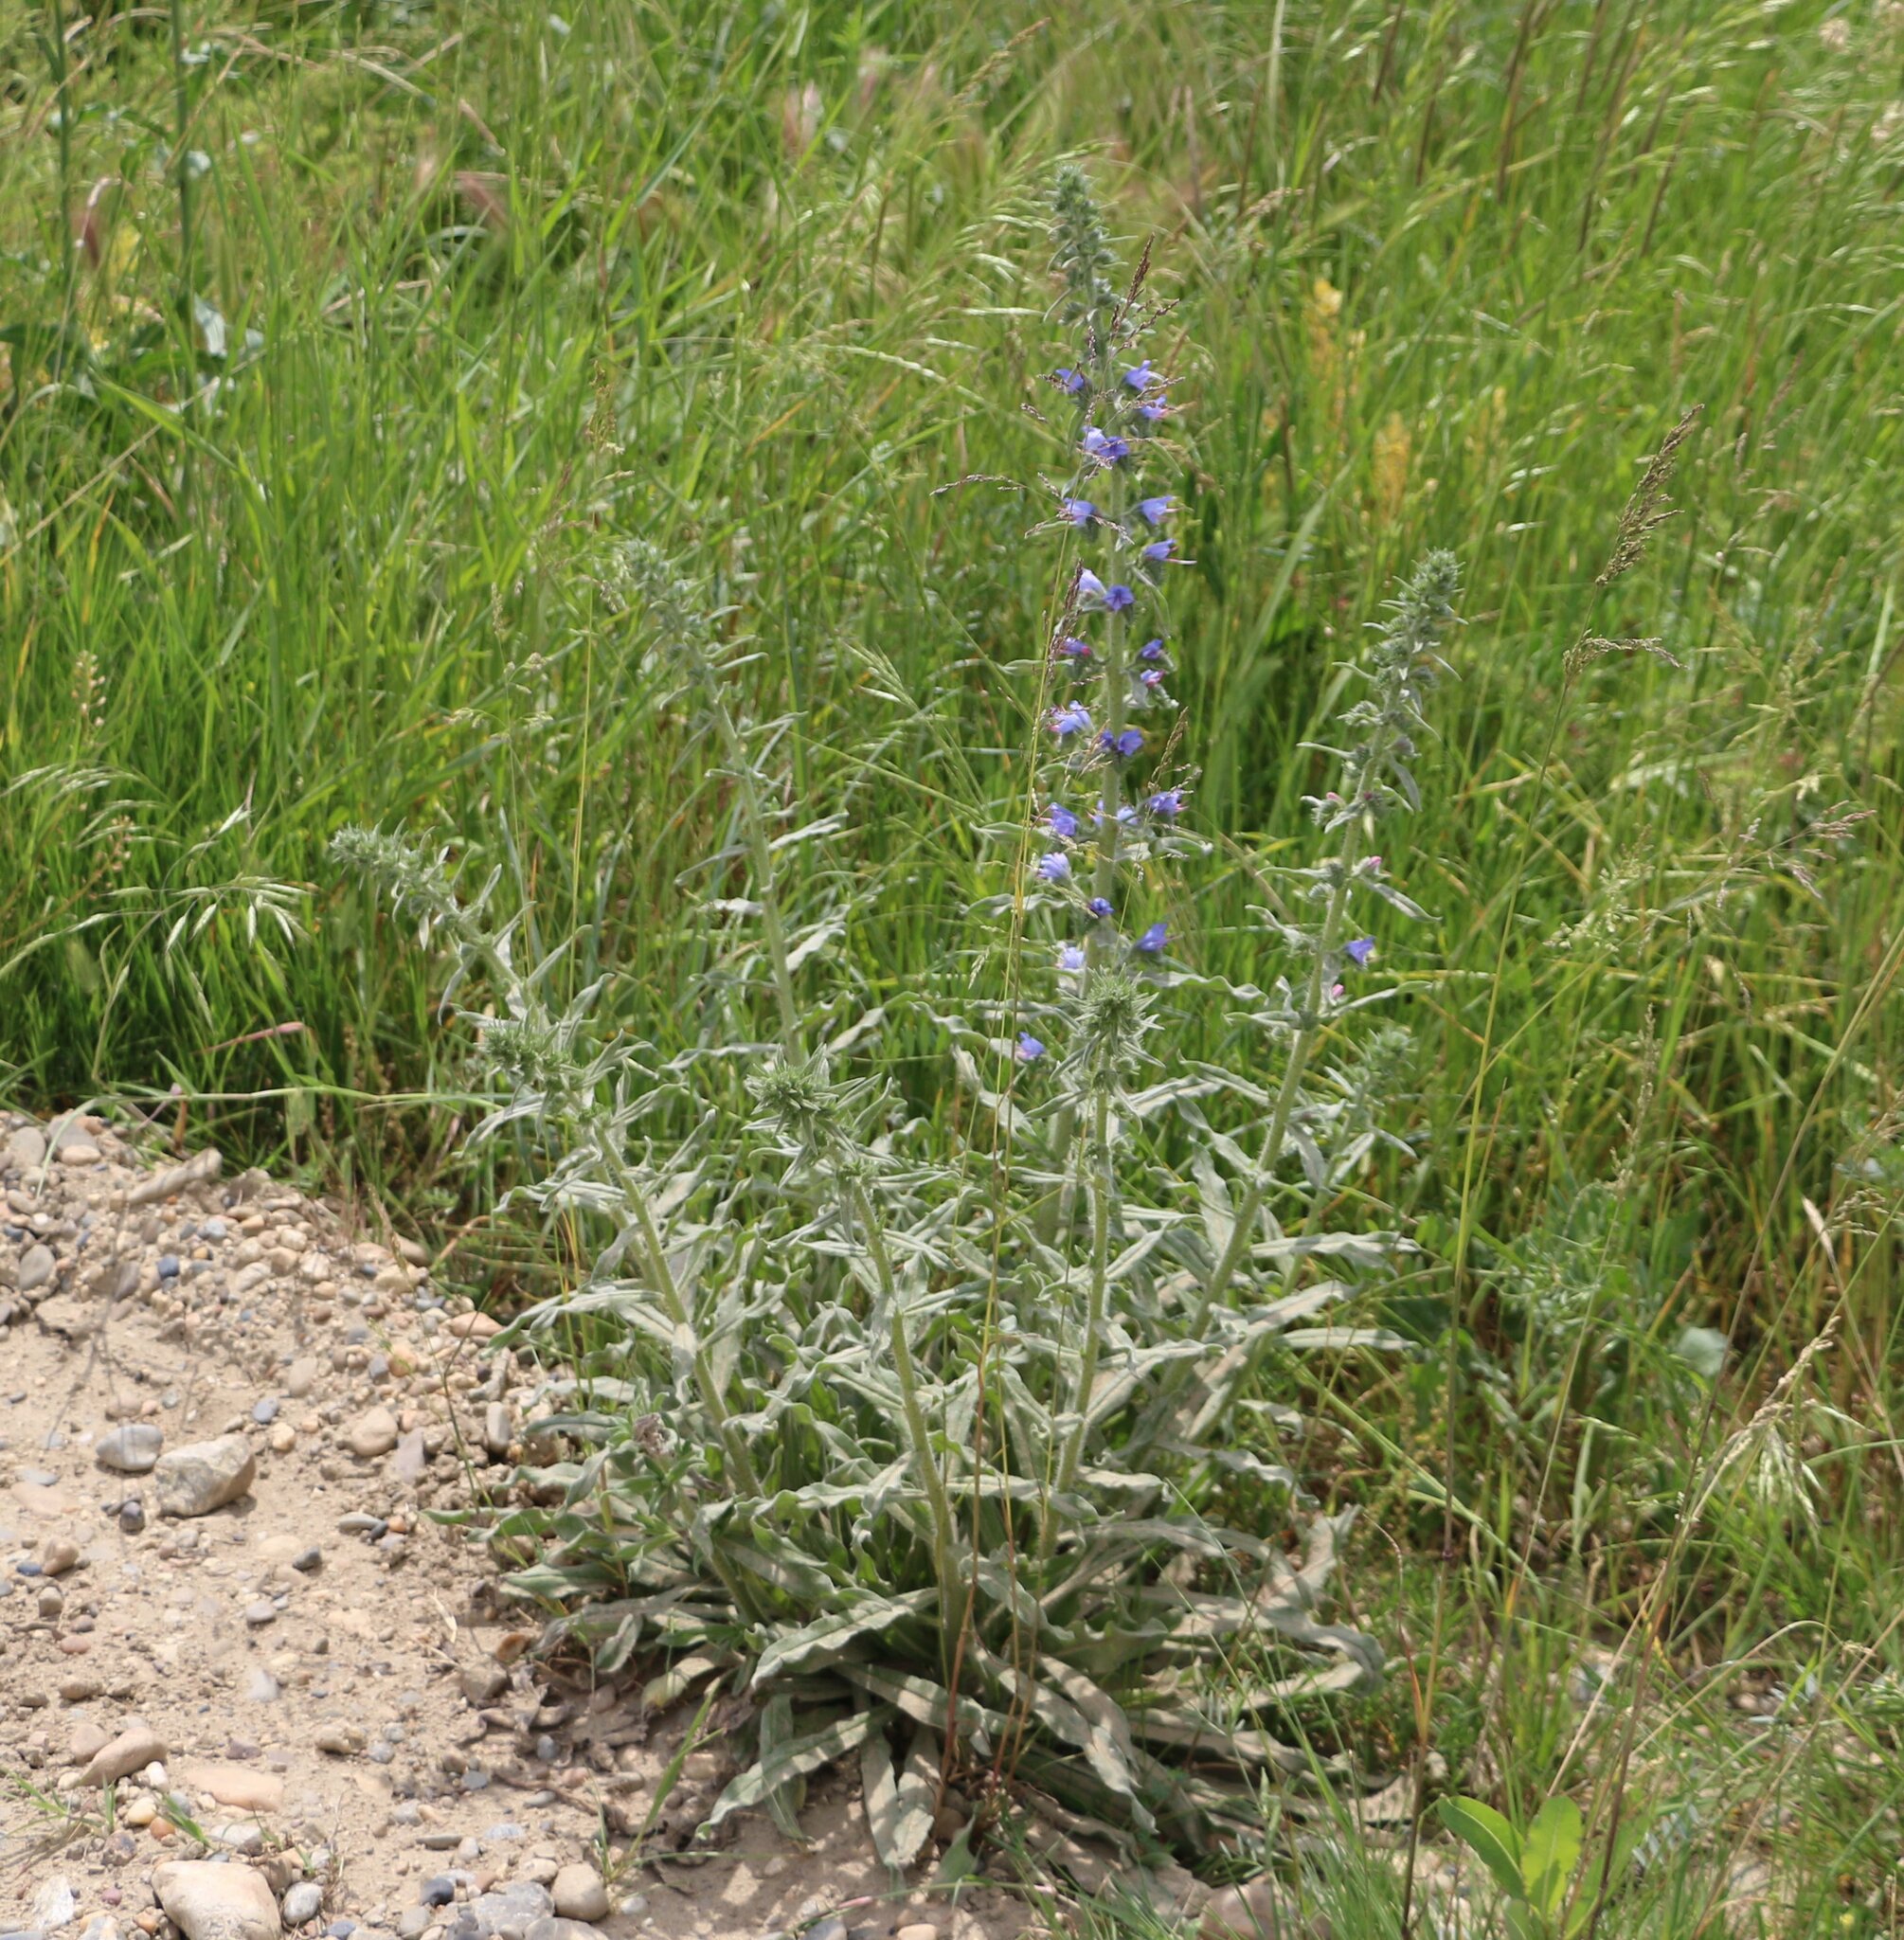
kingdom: Plantae
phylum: Tracheophyta
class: Magnoliopsida
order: Boraginales
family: Boraginaceae
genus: Echium
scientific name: Echium vulgare
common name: Common viper's bugloss
